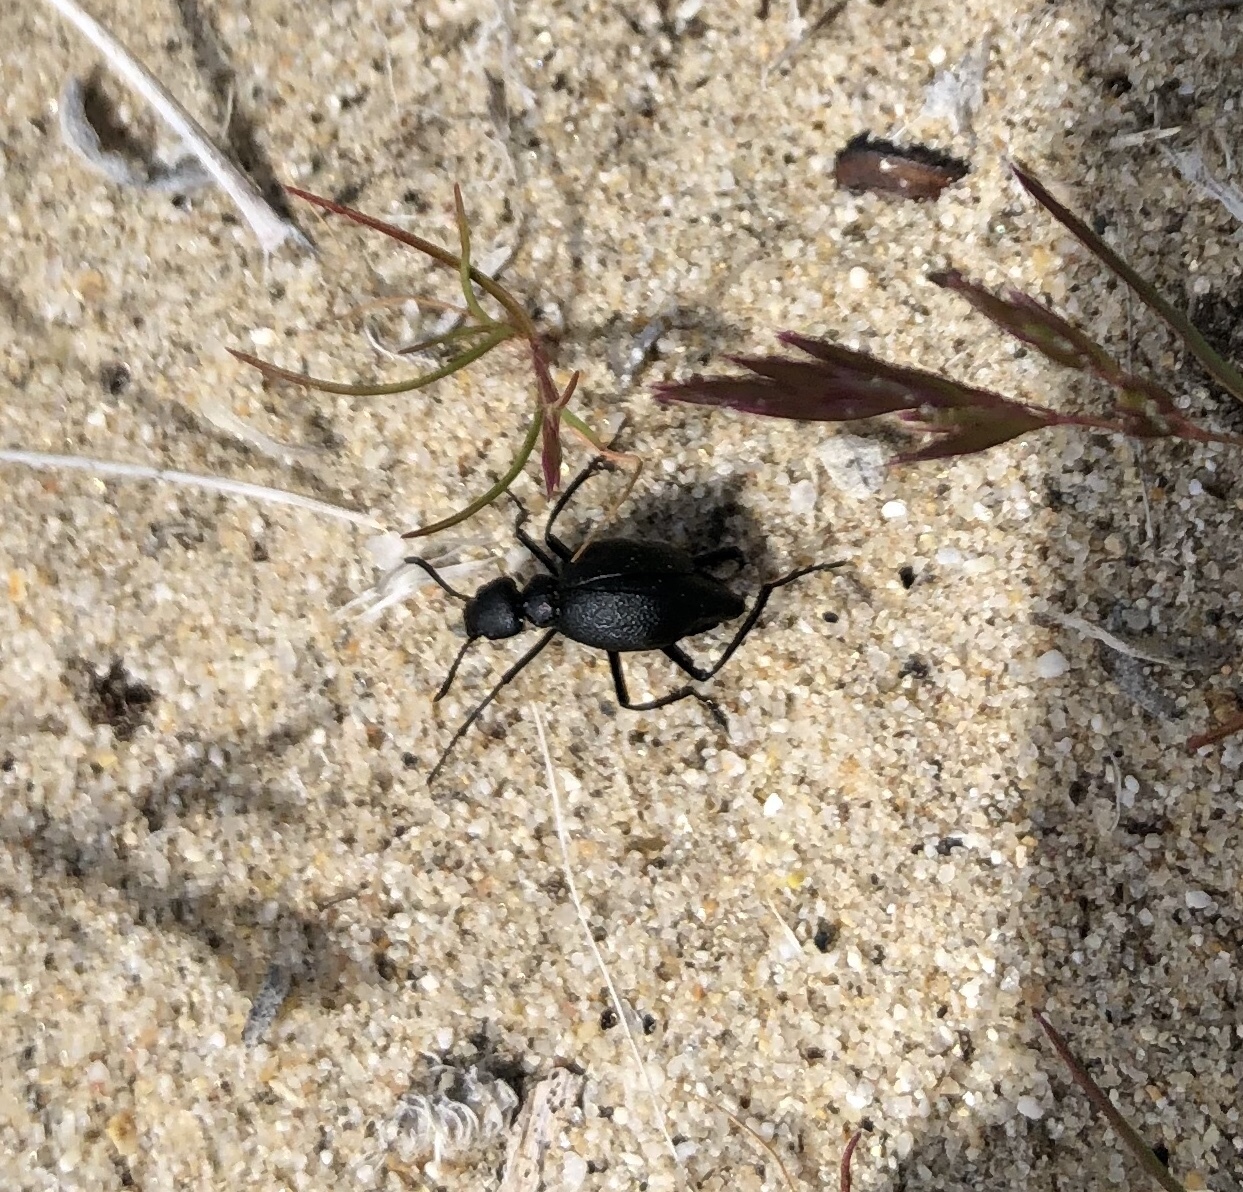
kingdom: Animalia
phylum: Arthropoda
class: Insecta
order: Coleoptera
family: Meloidae
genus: Cordylospasta
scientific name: Cordylospasta opaca
